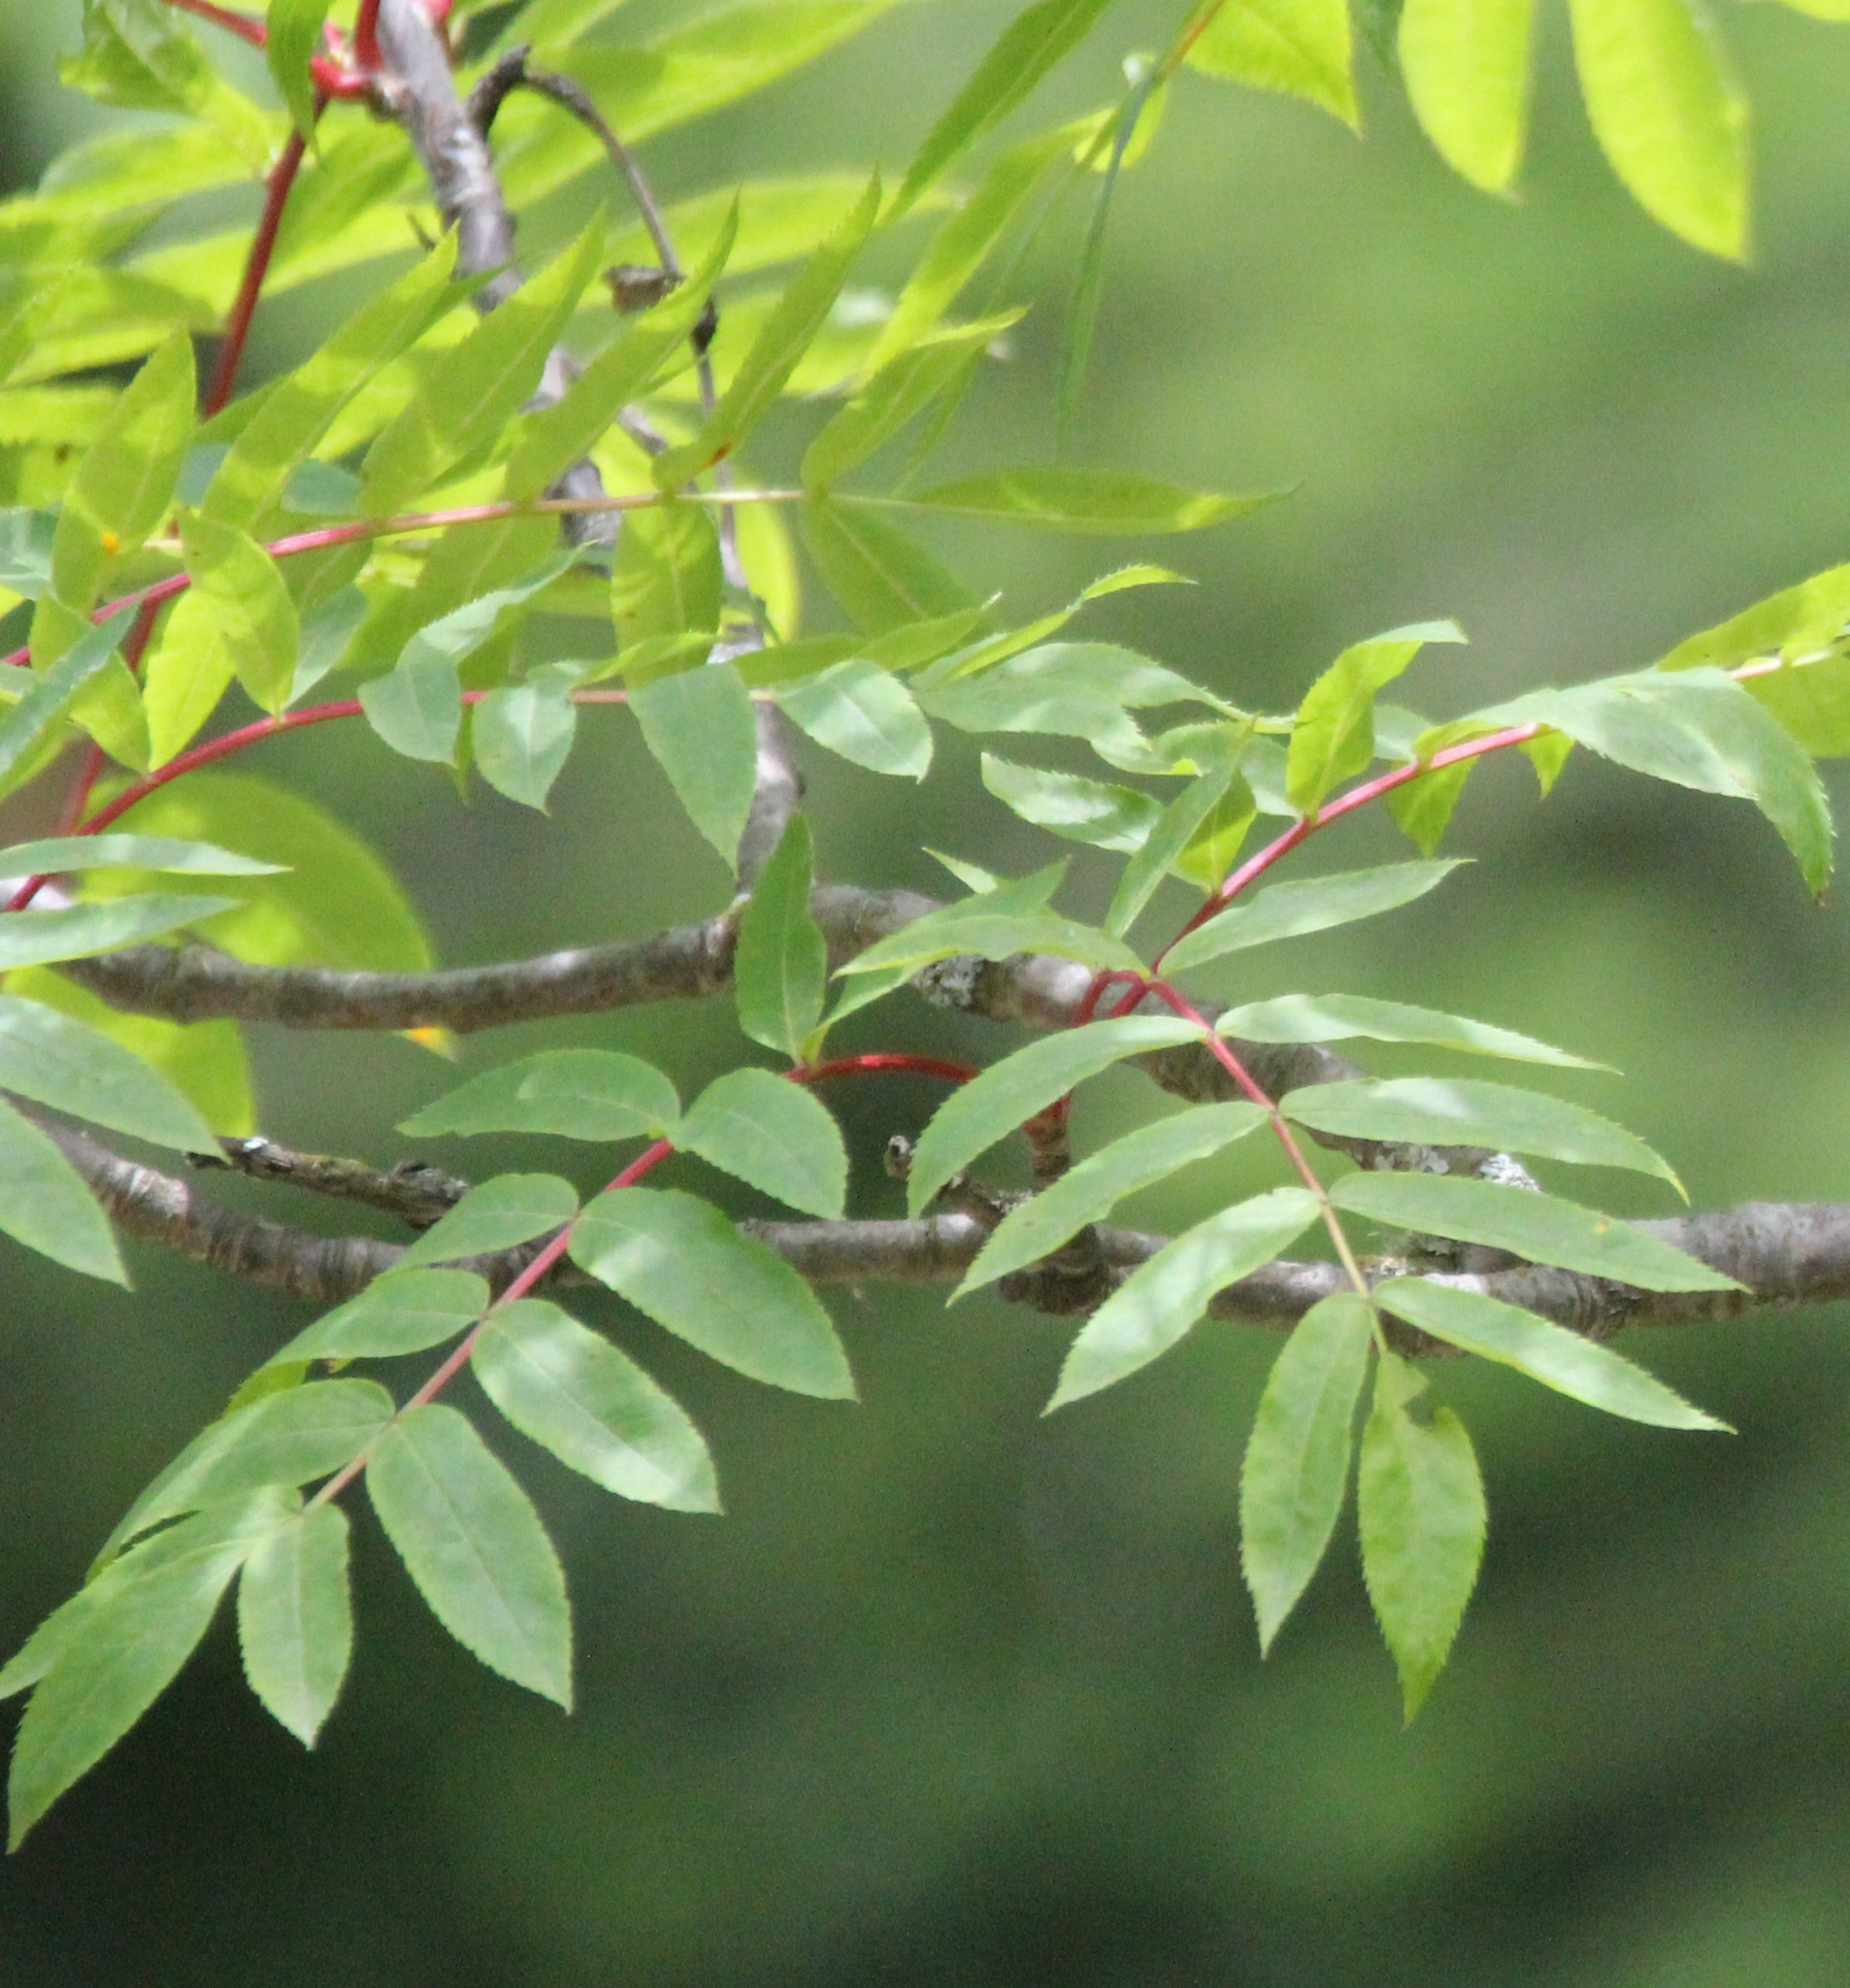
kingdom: Plantae
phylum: Tracheophyta
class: Magnoliopsida
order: Rosales
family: Rosaceae
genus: Sorbus
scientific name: Sorbus americana
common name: American mountain-ash
